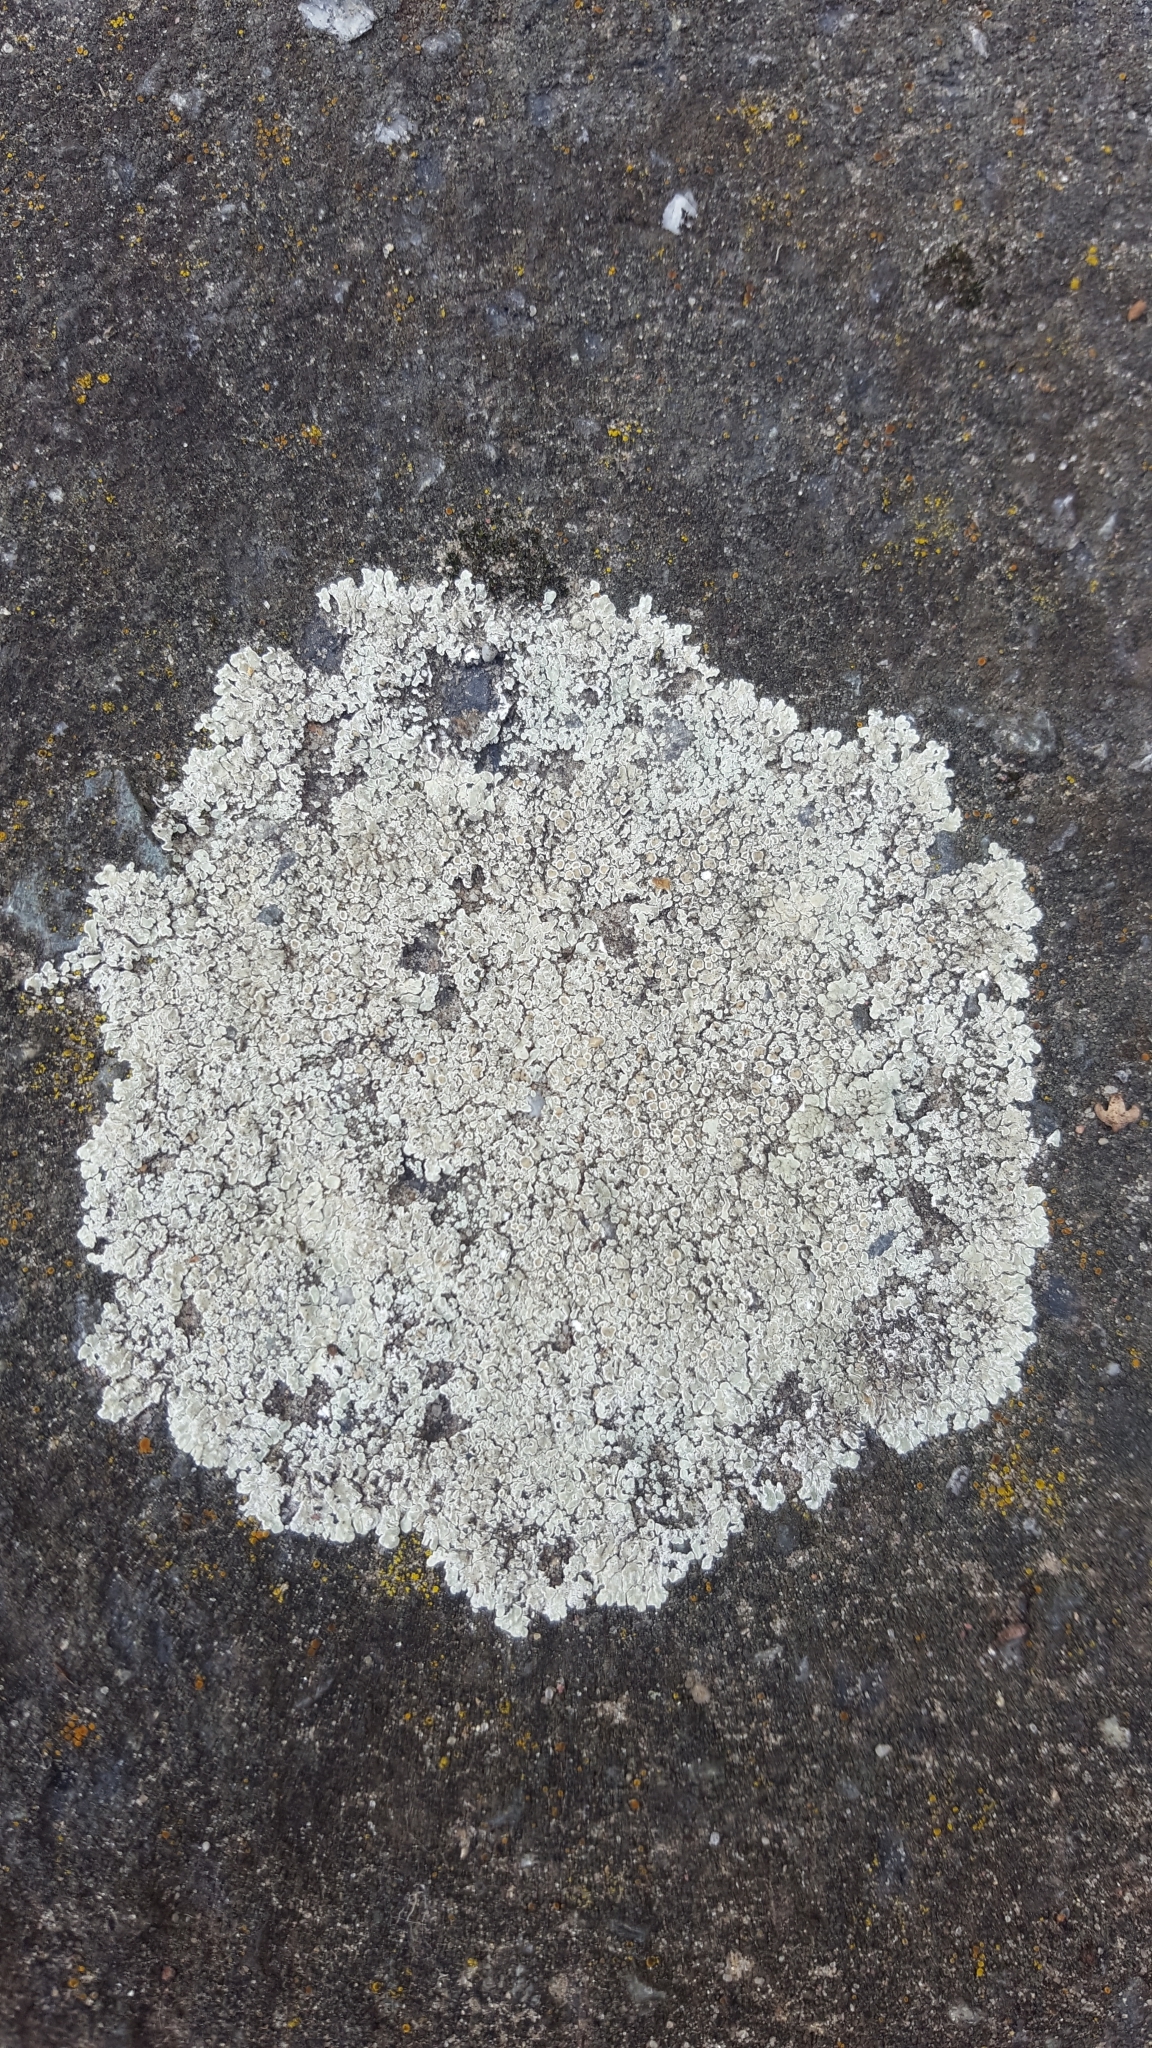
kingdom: Fungi
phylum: Ascomycota
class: Lecanoromycetes
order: Lecanorales
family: Lecanoraceae
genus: Protoparmeliopsis
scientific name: Protoparmeliopsis muralis
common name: Stonewall rim lichen
